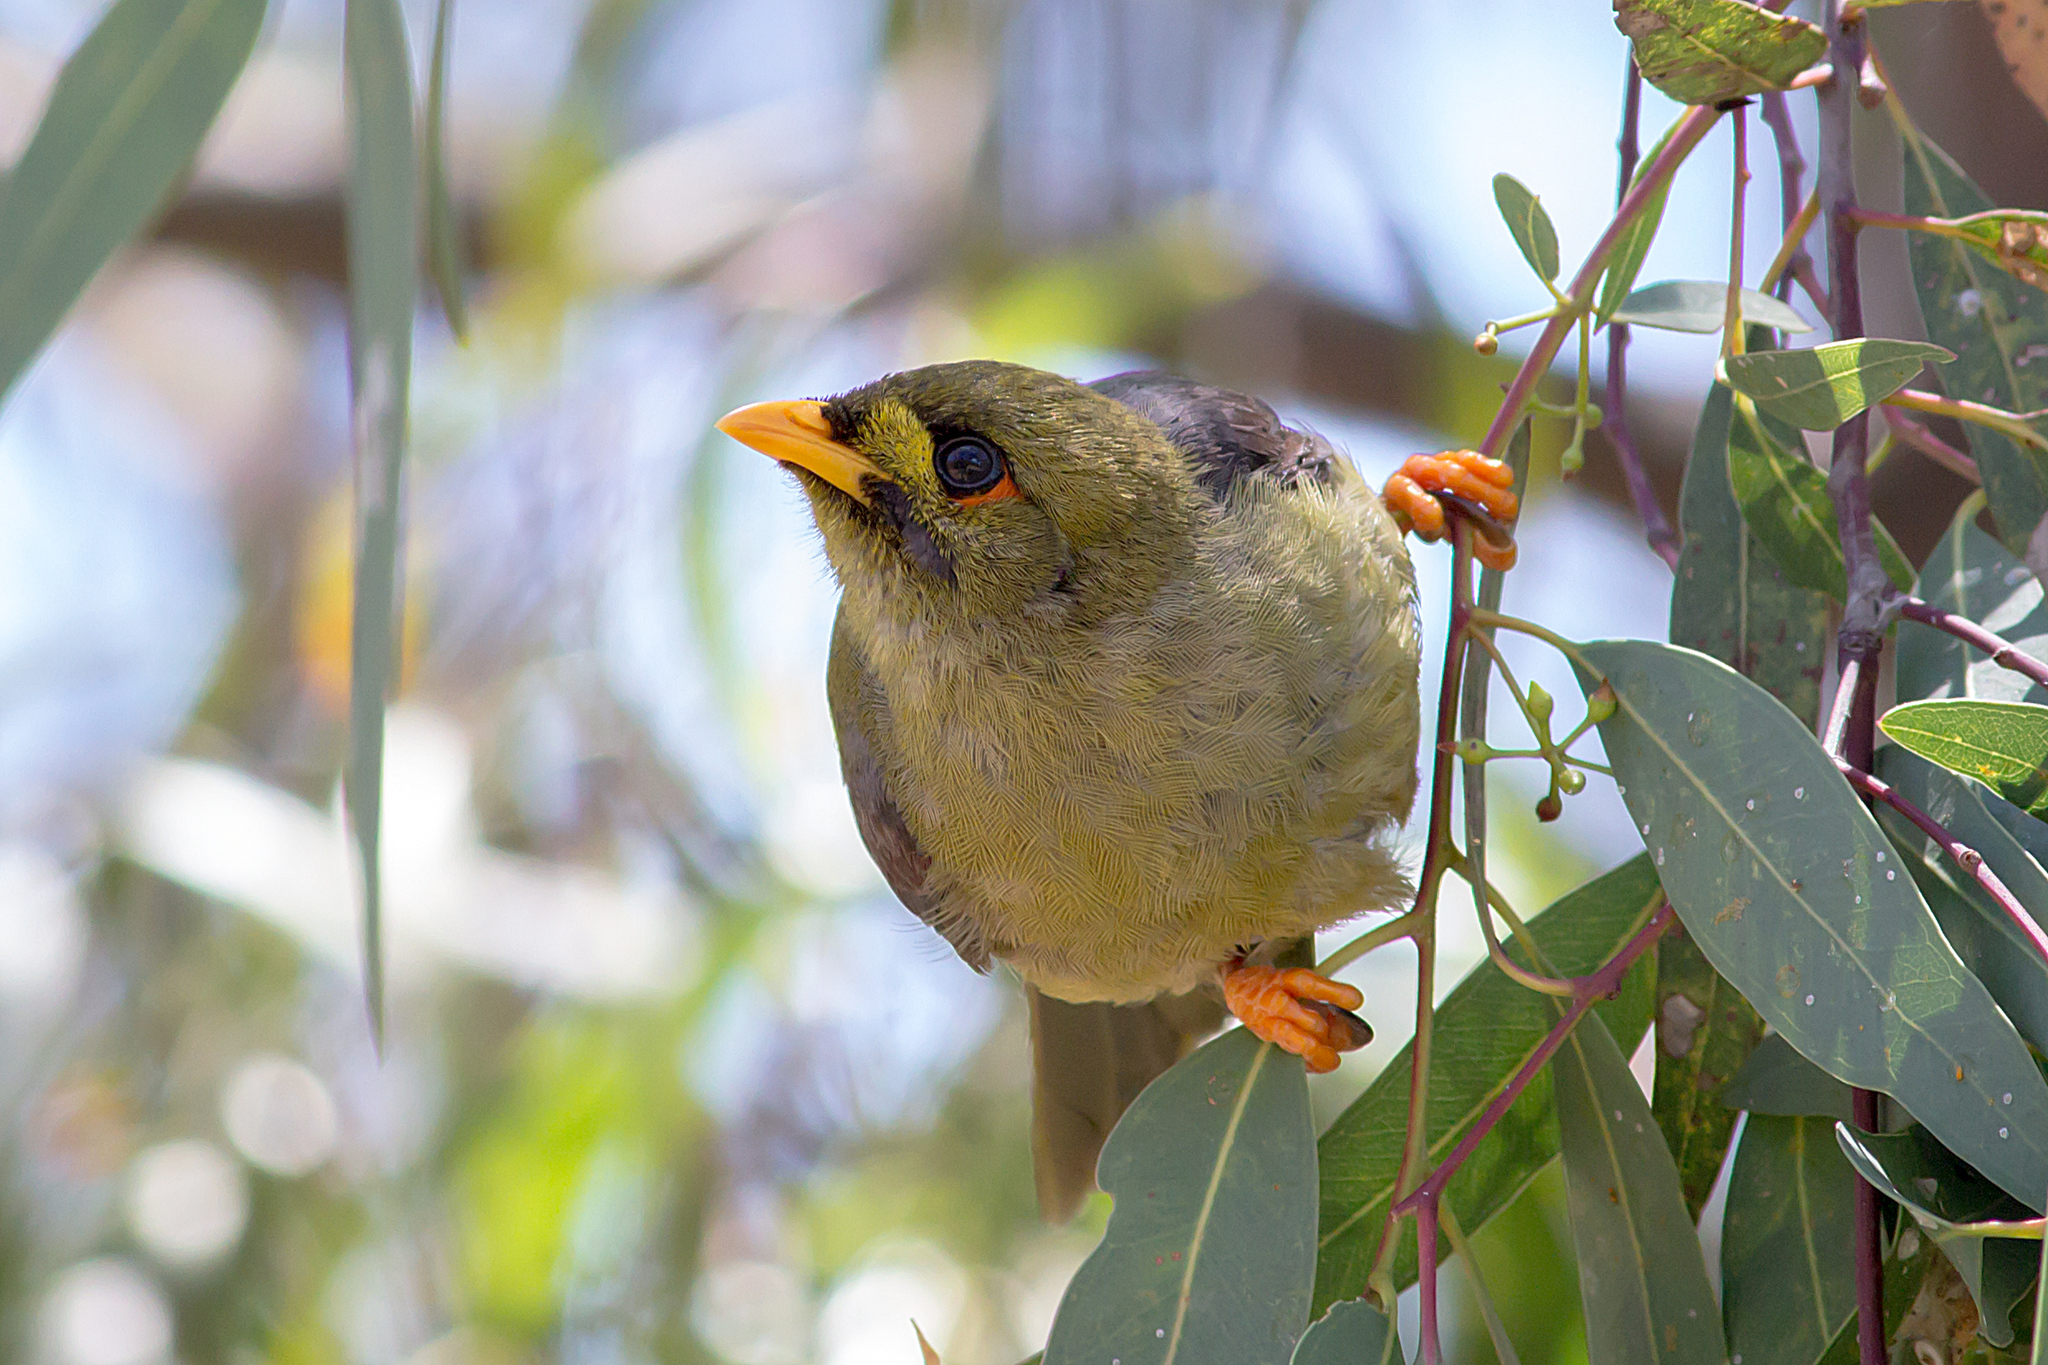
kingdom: Animalia
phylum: Chordata
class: Aves
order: Passeriformes
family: Meliphagidae
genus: Manorina
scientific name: Manorina melanophrys
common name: Bell miner
